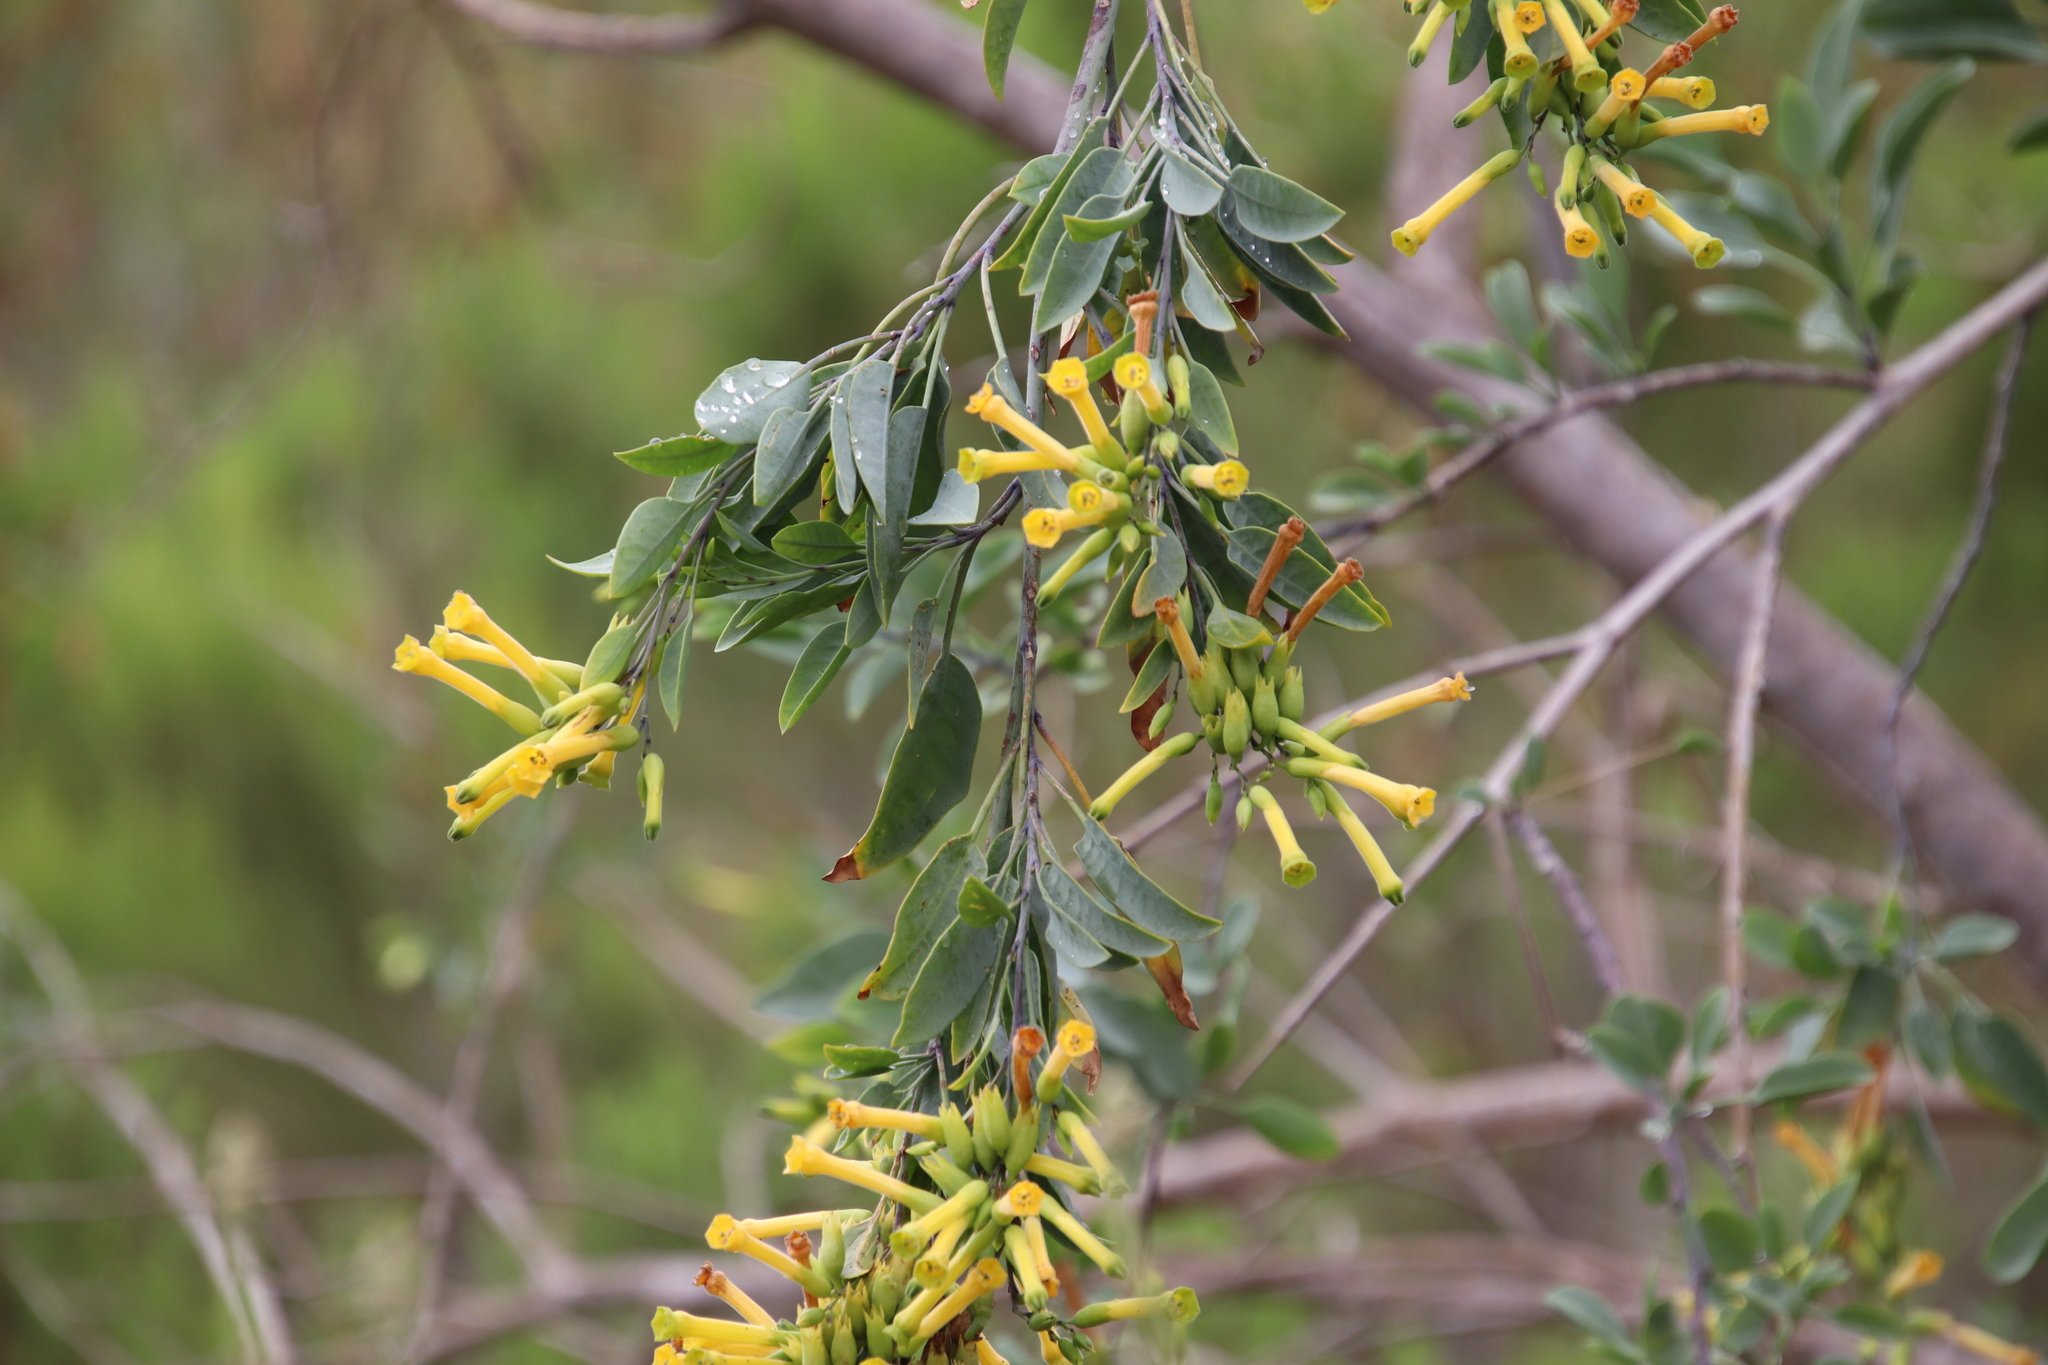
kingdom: Plantae
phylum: Tracheophyta
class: Magnoliopsida
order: Solanales
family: Solanaceae
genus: Nicotiana
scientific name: Nicotiana glauca
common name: Tree tobacco
